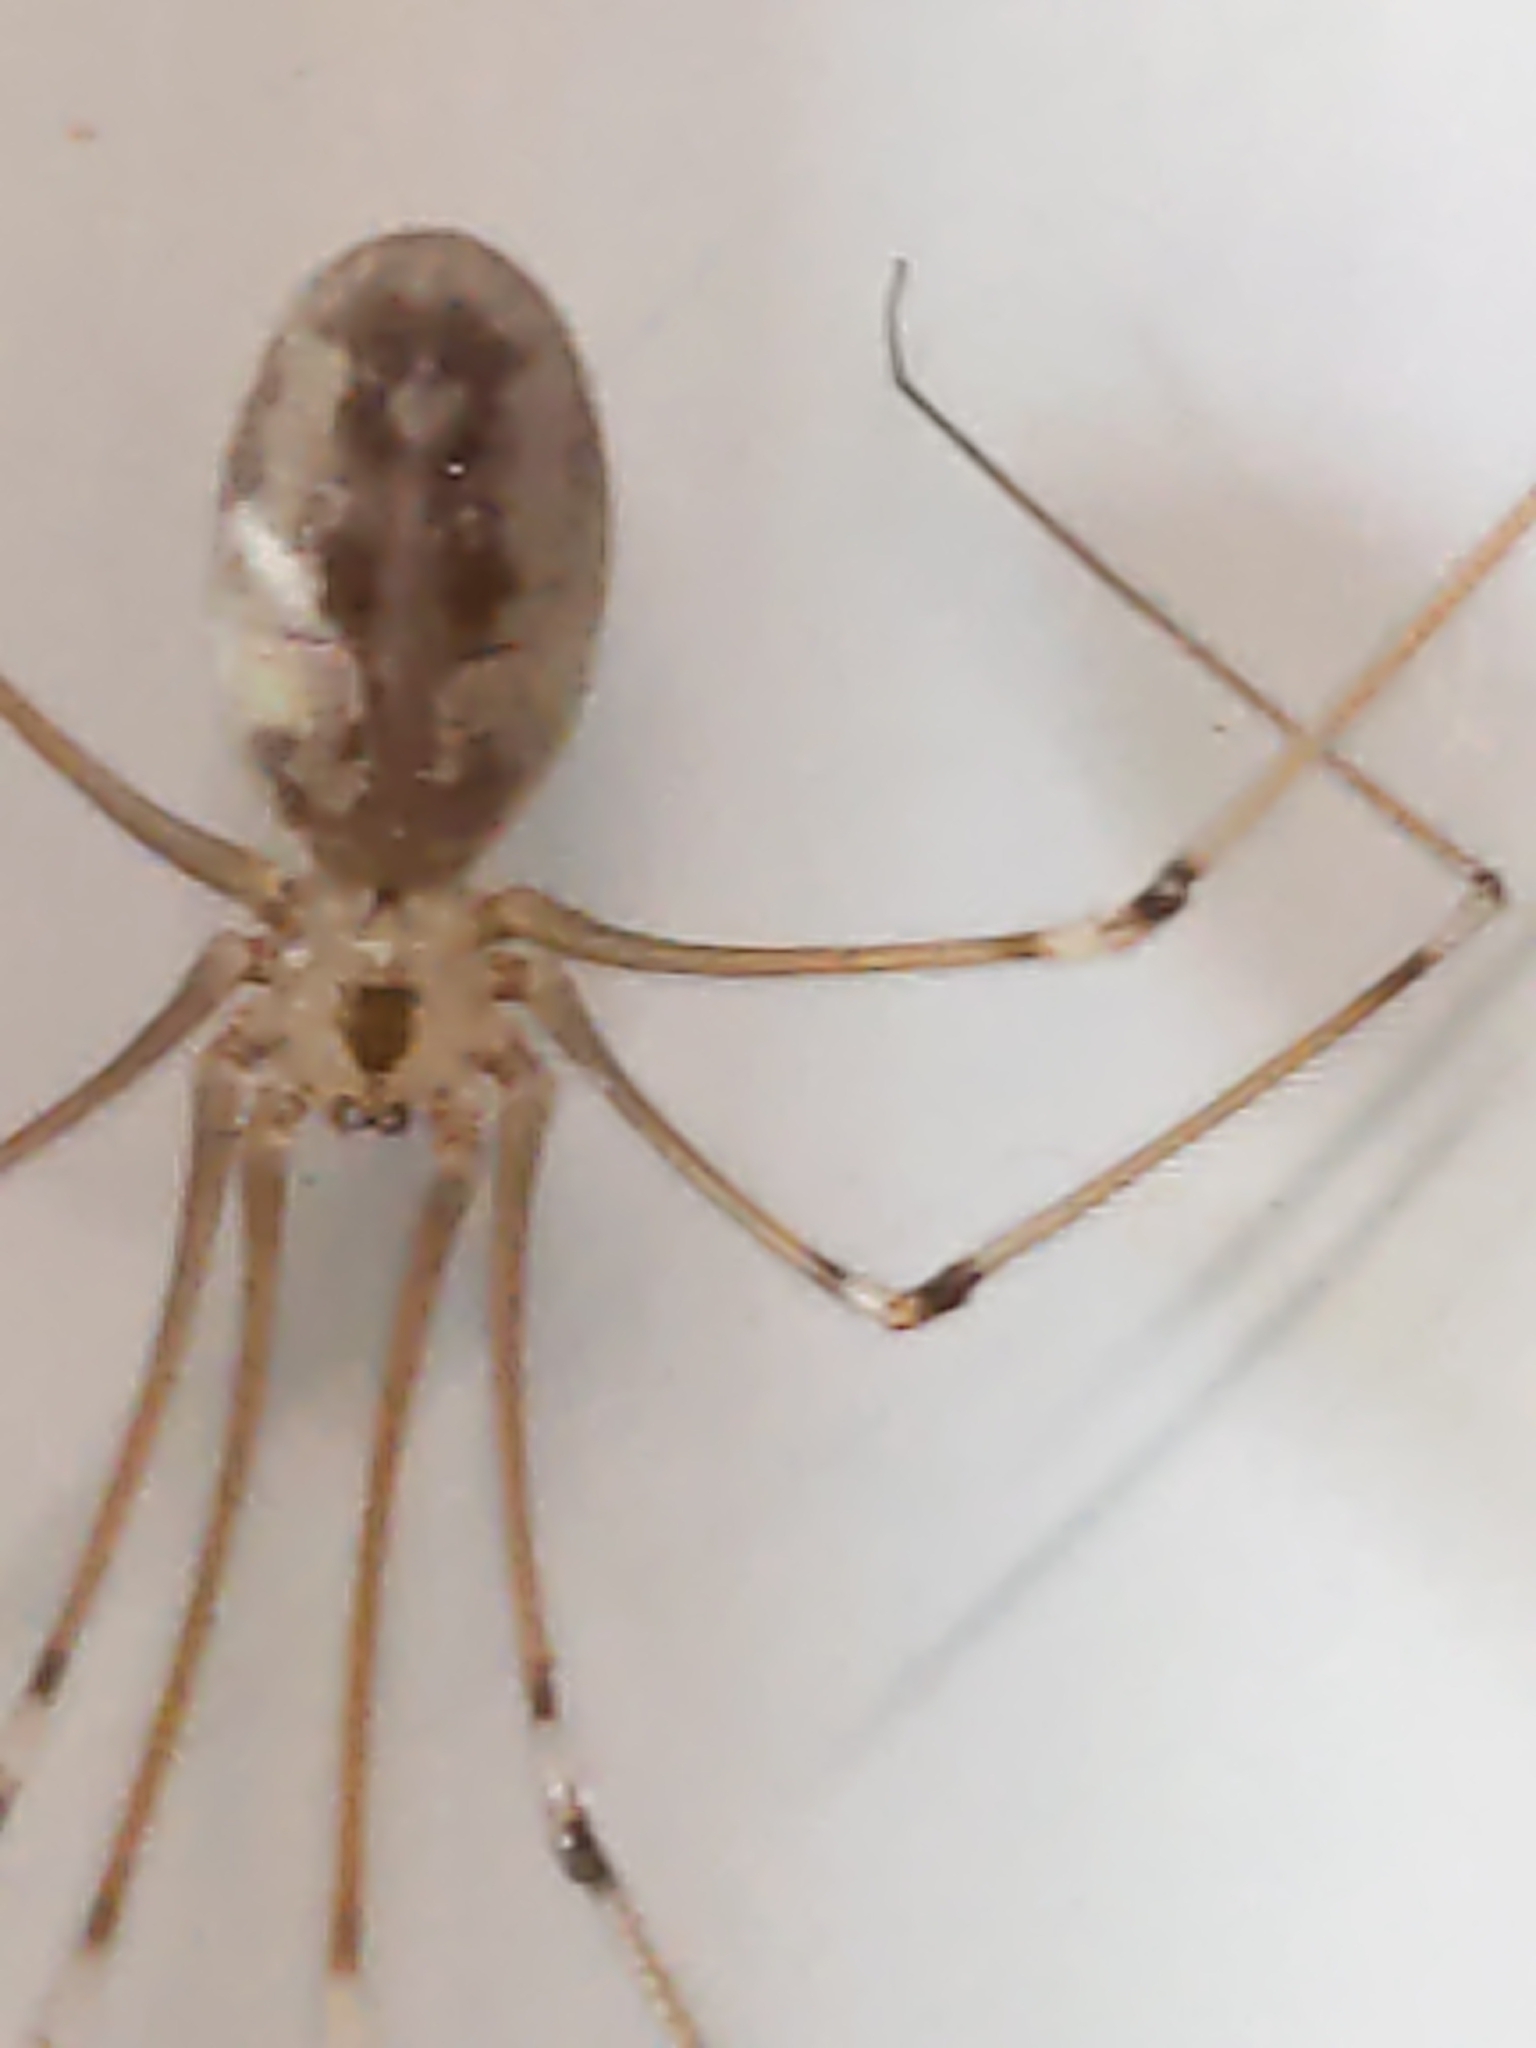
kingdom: Animalia
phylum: Arthropoda
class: Arachnida
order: Araneae
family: Pholcidae
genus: Pholcus
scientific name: Pholcus phalangioides
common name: Longbodied cellar spider
